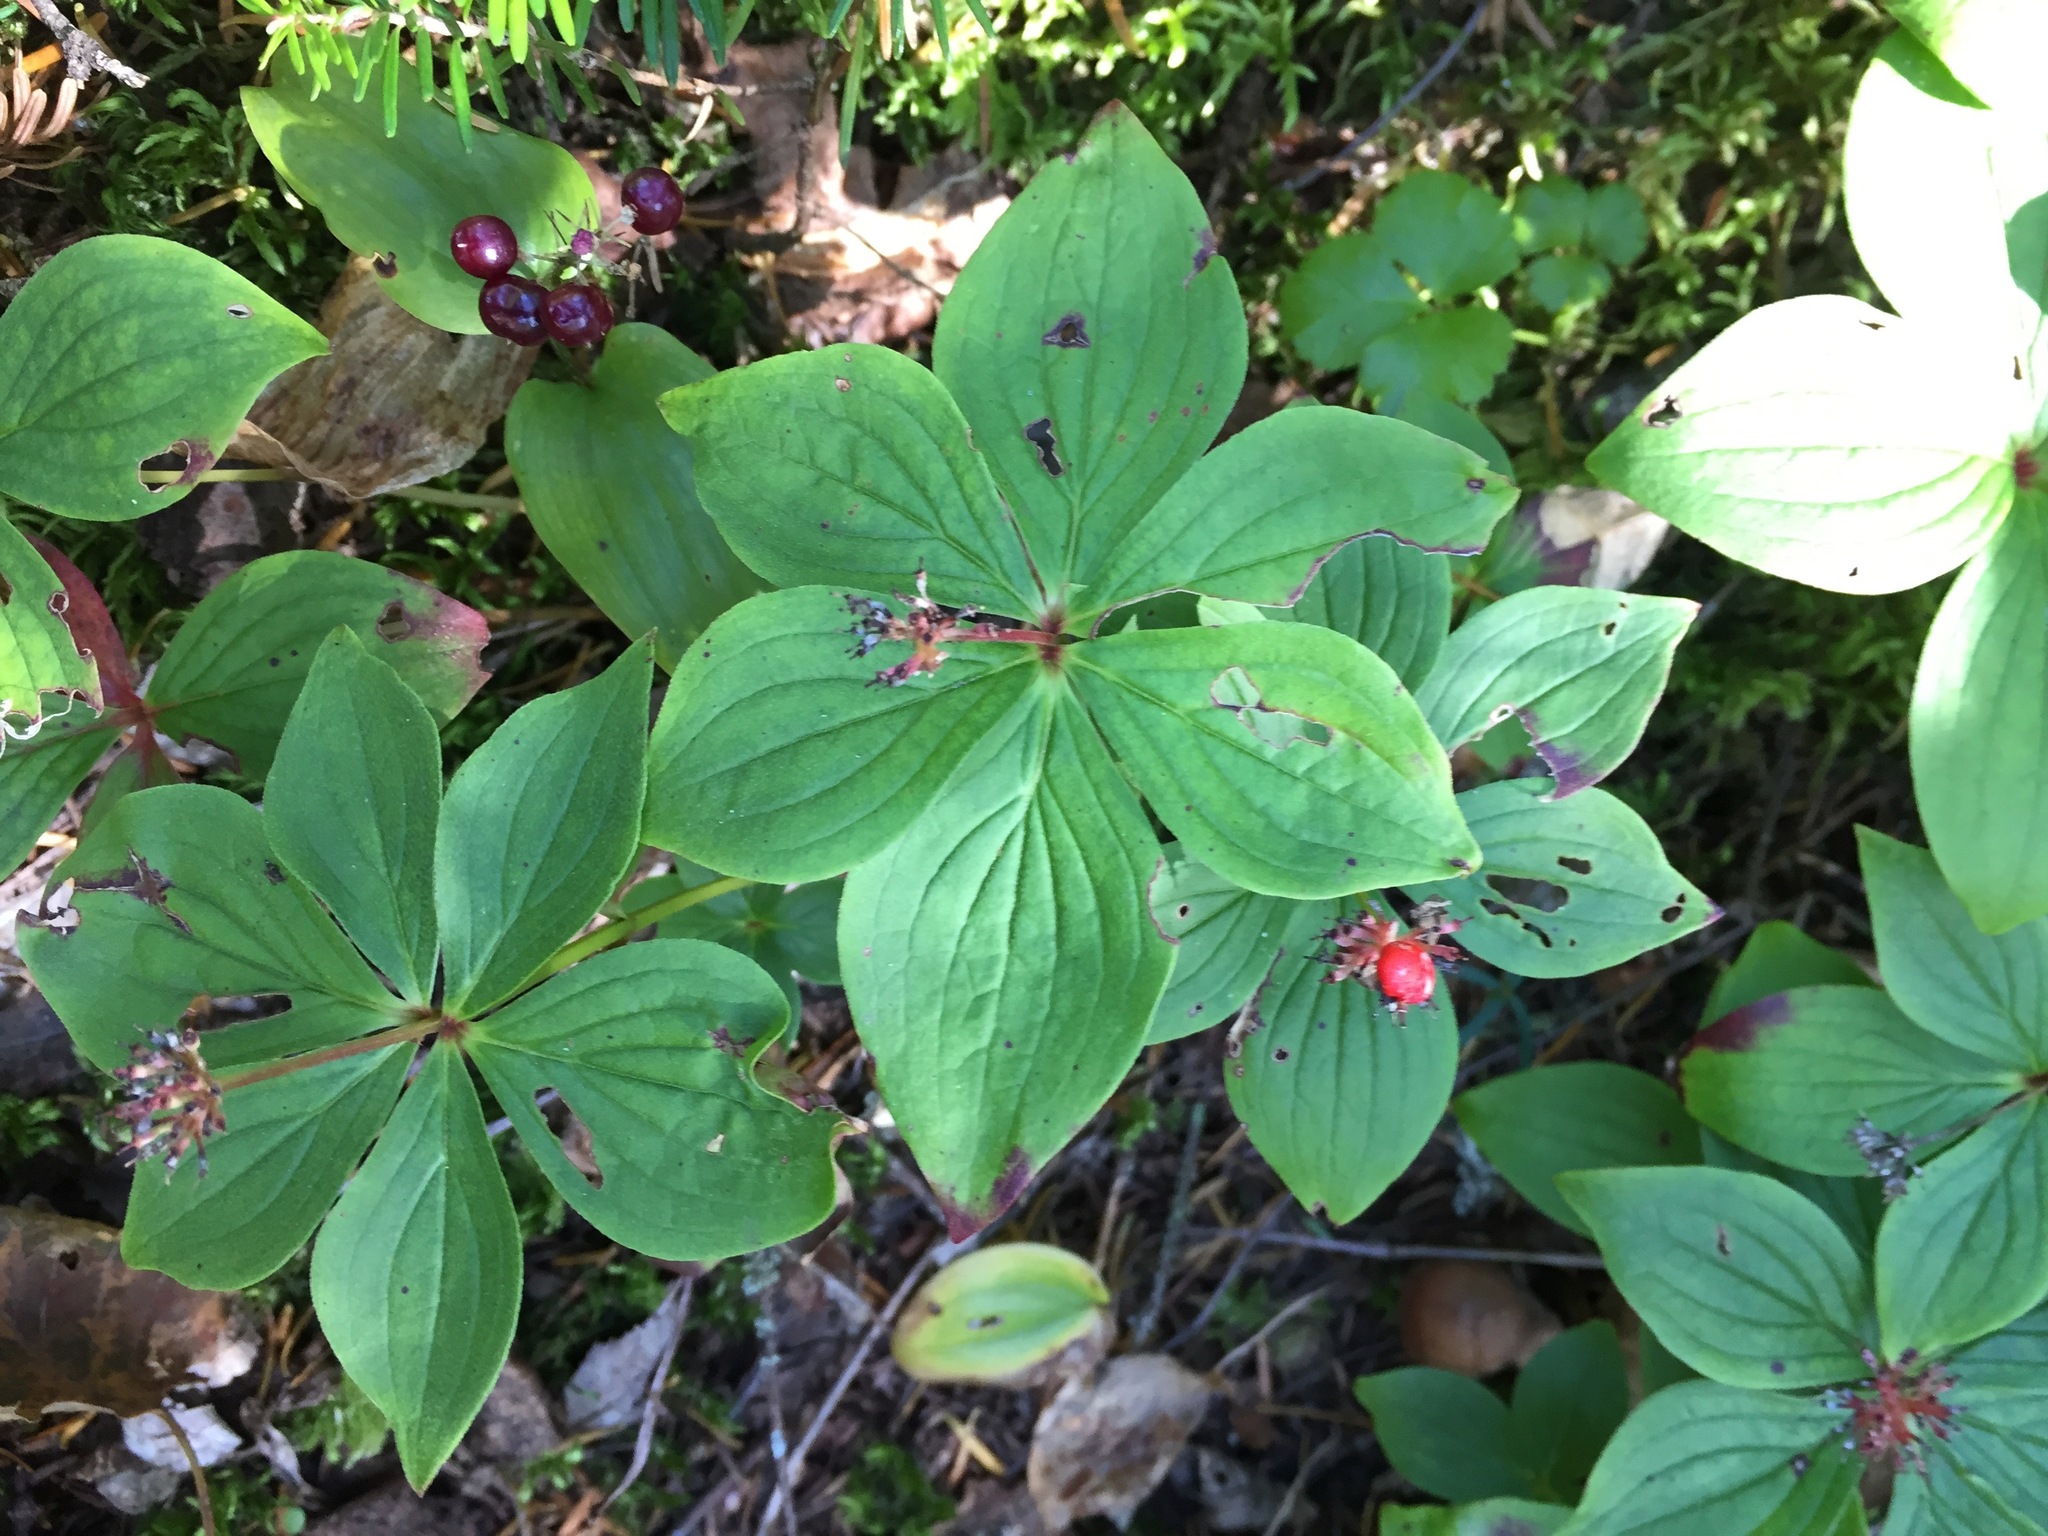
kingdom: Plantae
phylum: Tracheophyta
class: Magnoliopsida
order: Cornales
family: Cornaceae
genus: Cornus
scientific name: Cornus canadensis
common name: Creeping dogwood
